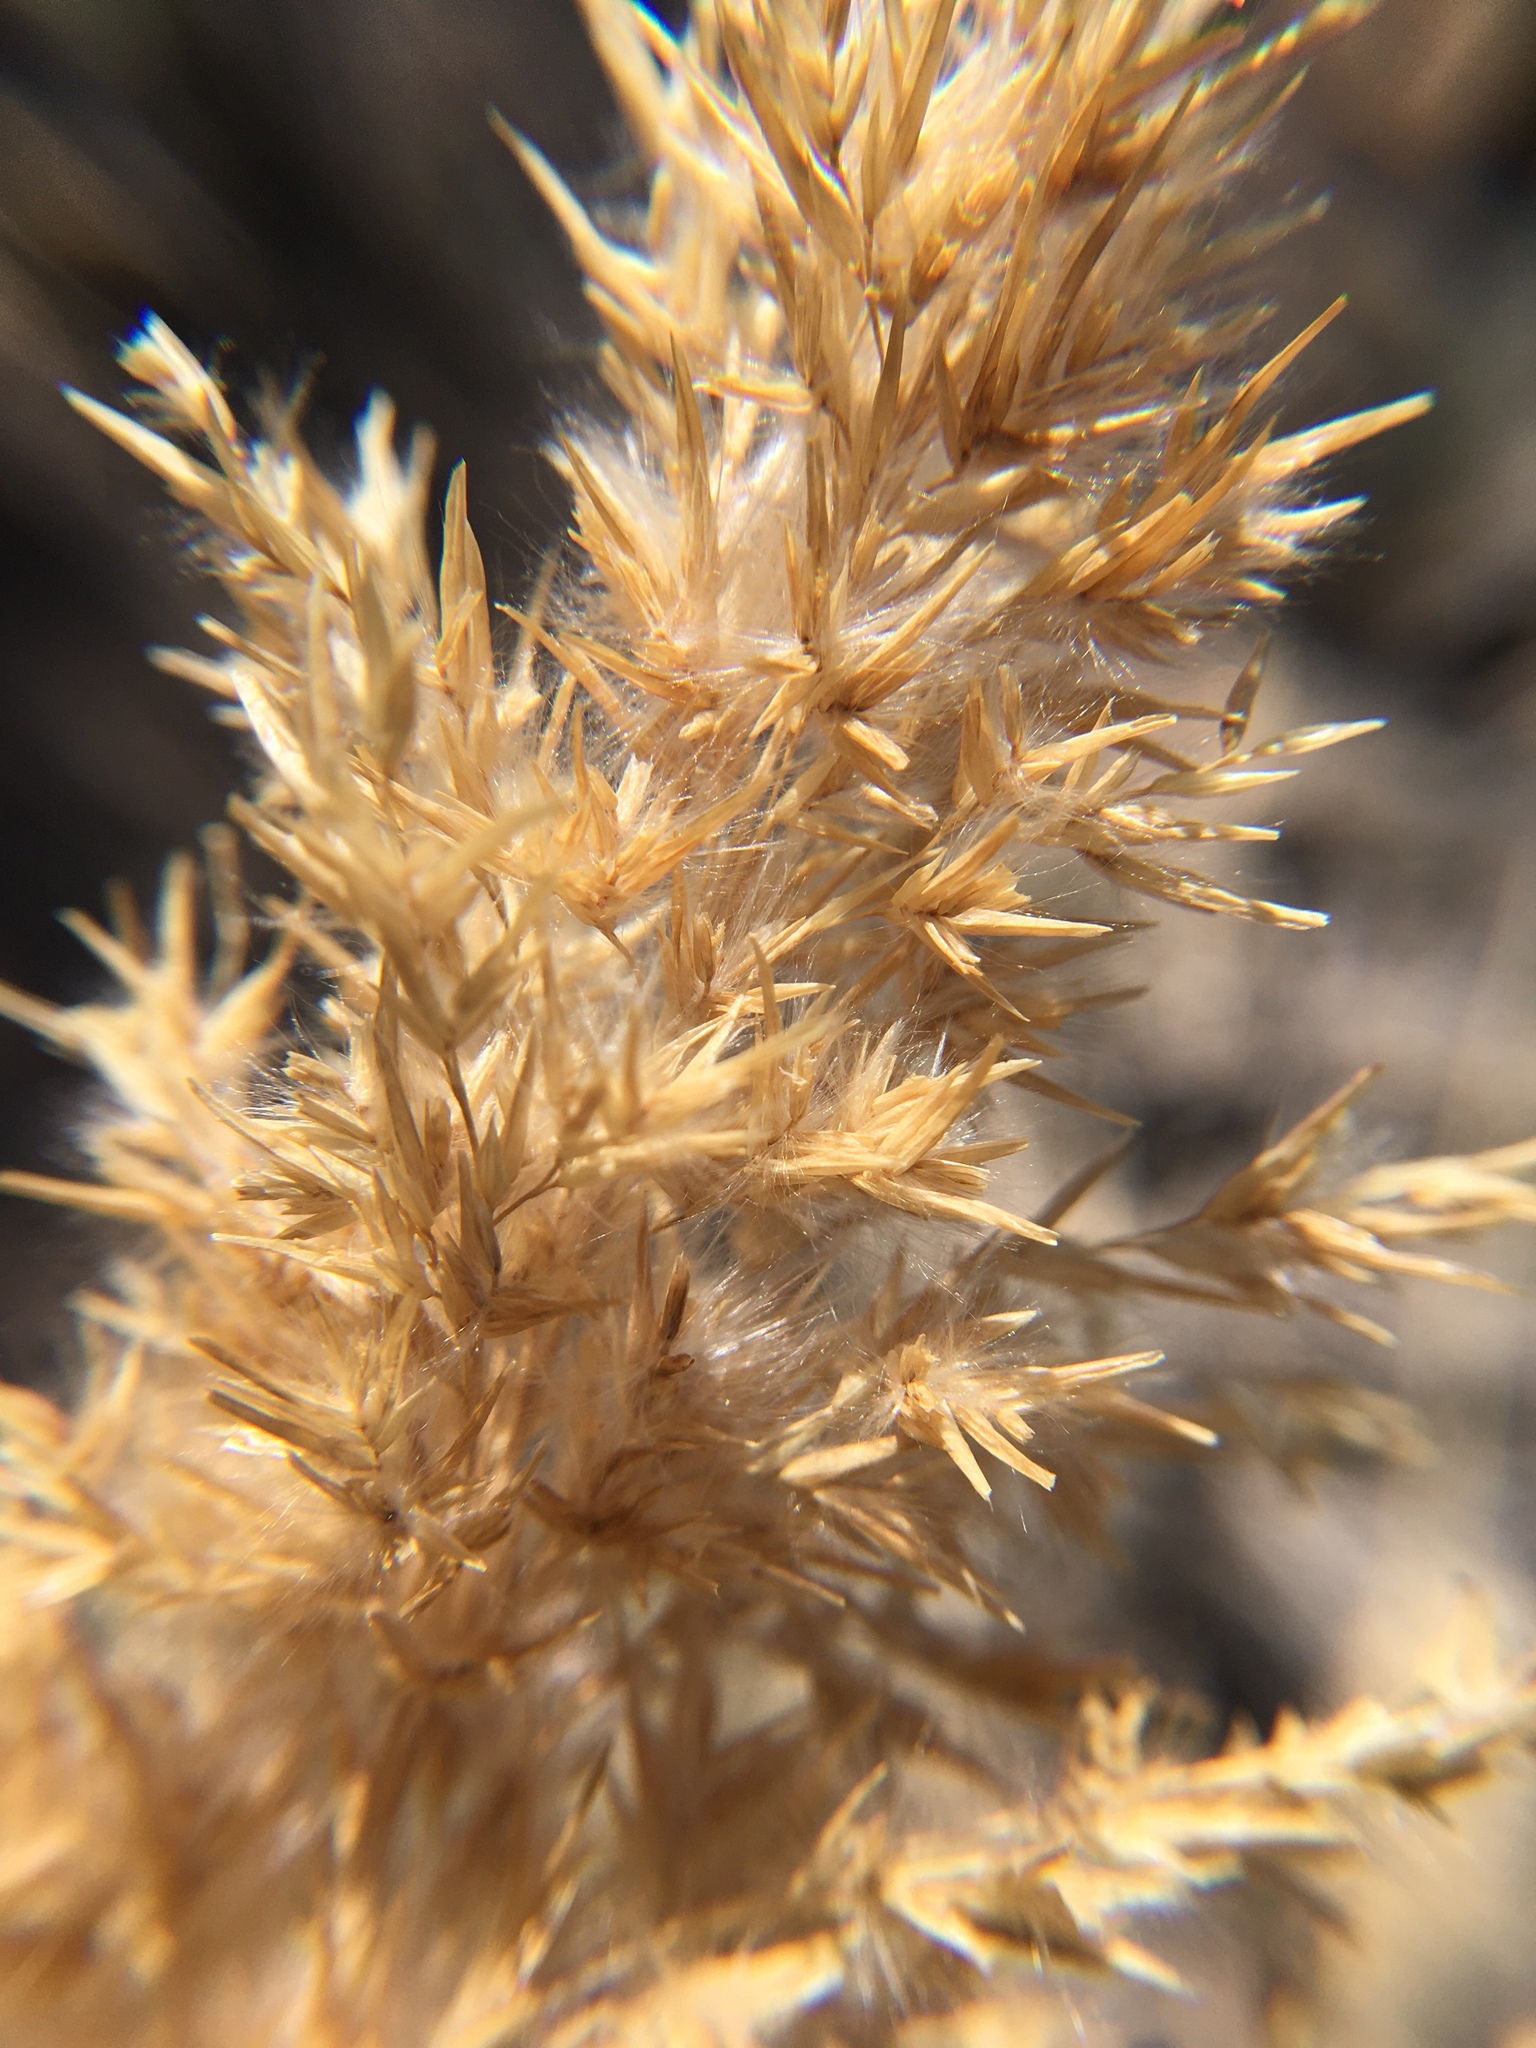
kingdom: Plantae
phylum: Tracheophyta
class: Liliopsida
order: Poales
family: Poaceae
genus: Phragmites
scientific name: Phragmites australis
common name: Common reed
